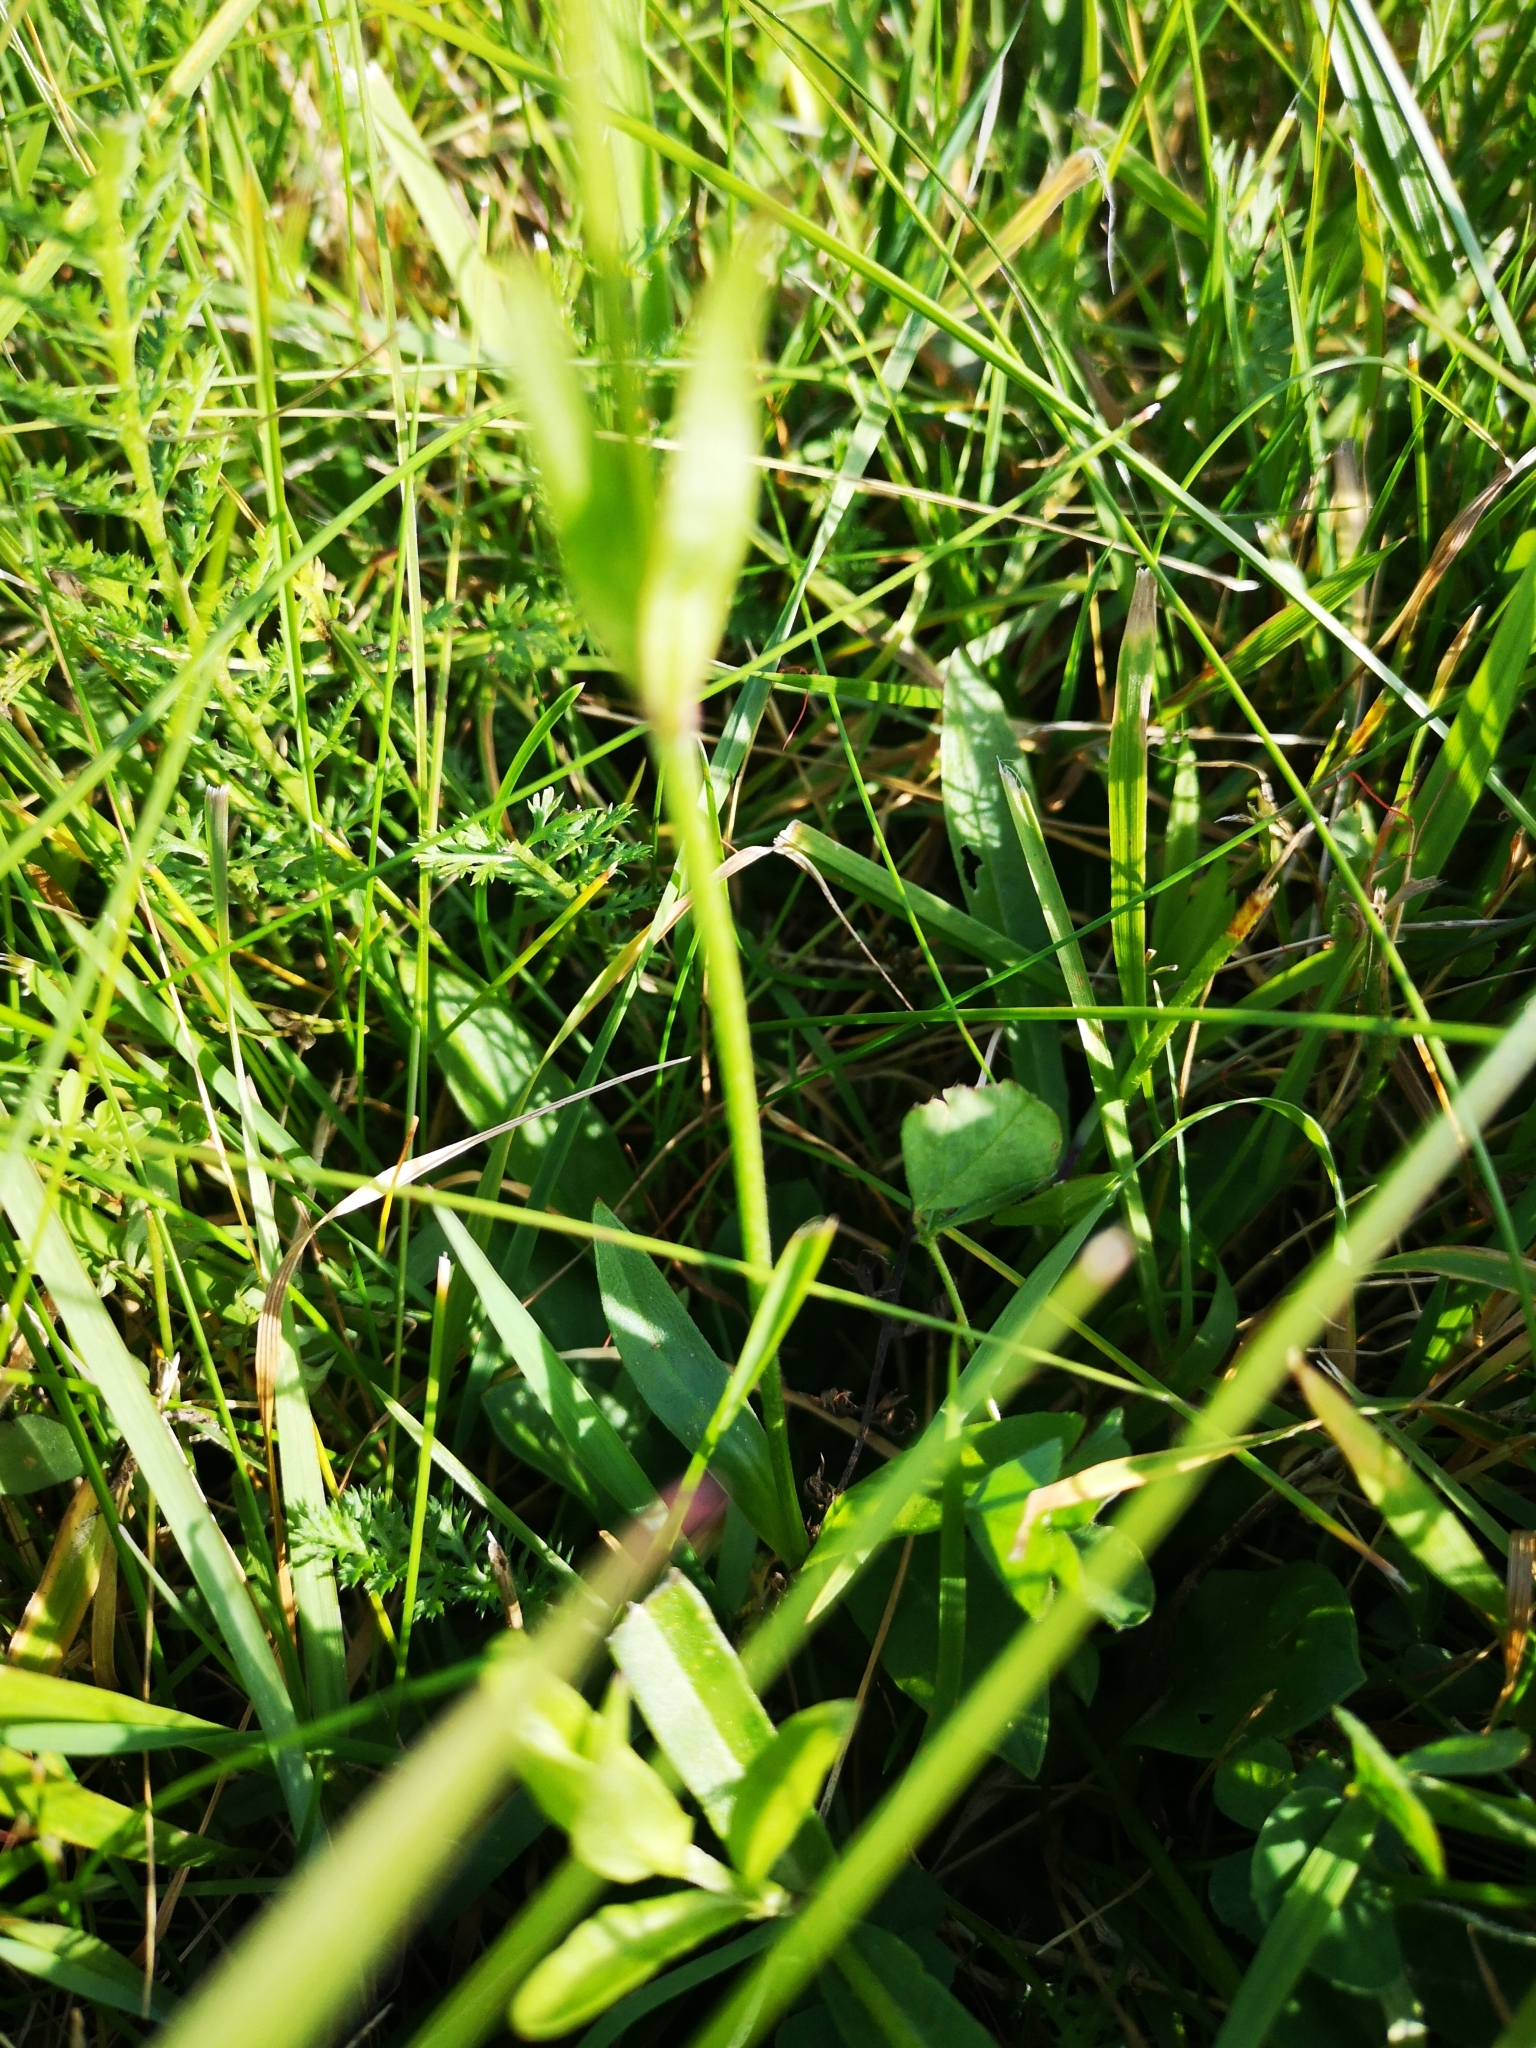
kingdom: Plantae
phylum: Tracheophyta
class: Magnoliopsida
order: Caryophyllales
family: Caryophyllaceae
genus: Silene
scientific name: Silene flos-cuculi
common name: Ragged-robin
